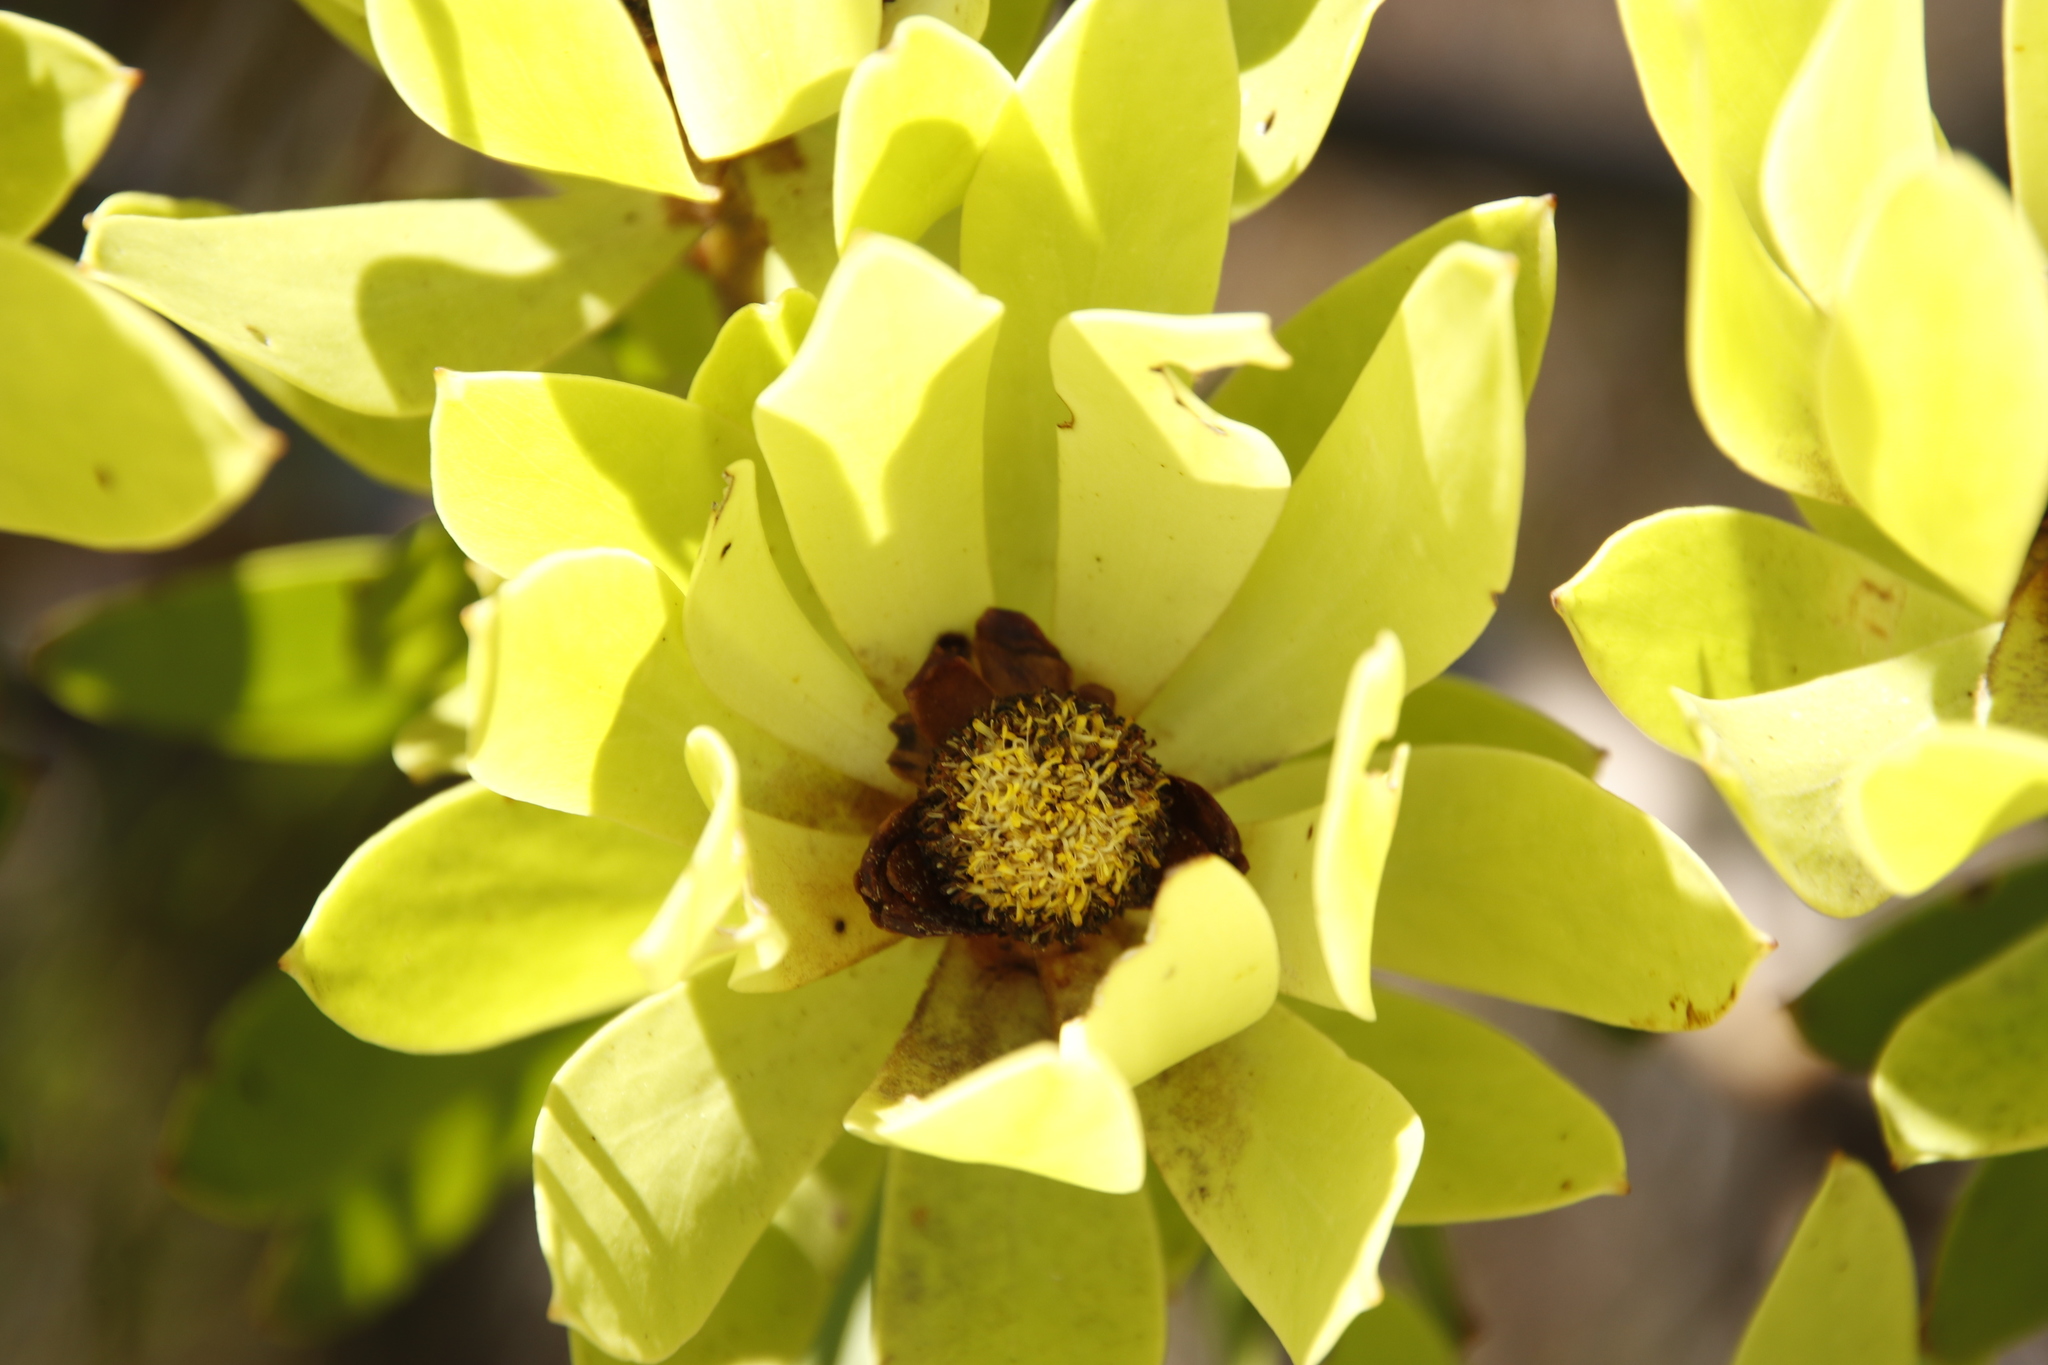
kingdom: Plantae
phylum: Tracheophyta
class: Magnoliopsida
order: Proteales
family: Proteaceae
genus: Leucadendron
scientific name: Leucadendron microcephalum
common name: Oilbract conebush
